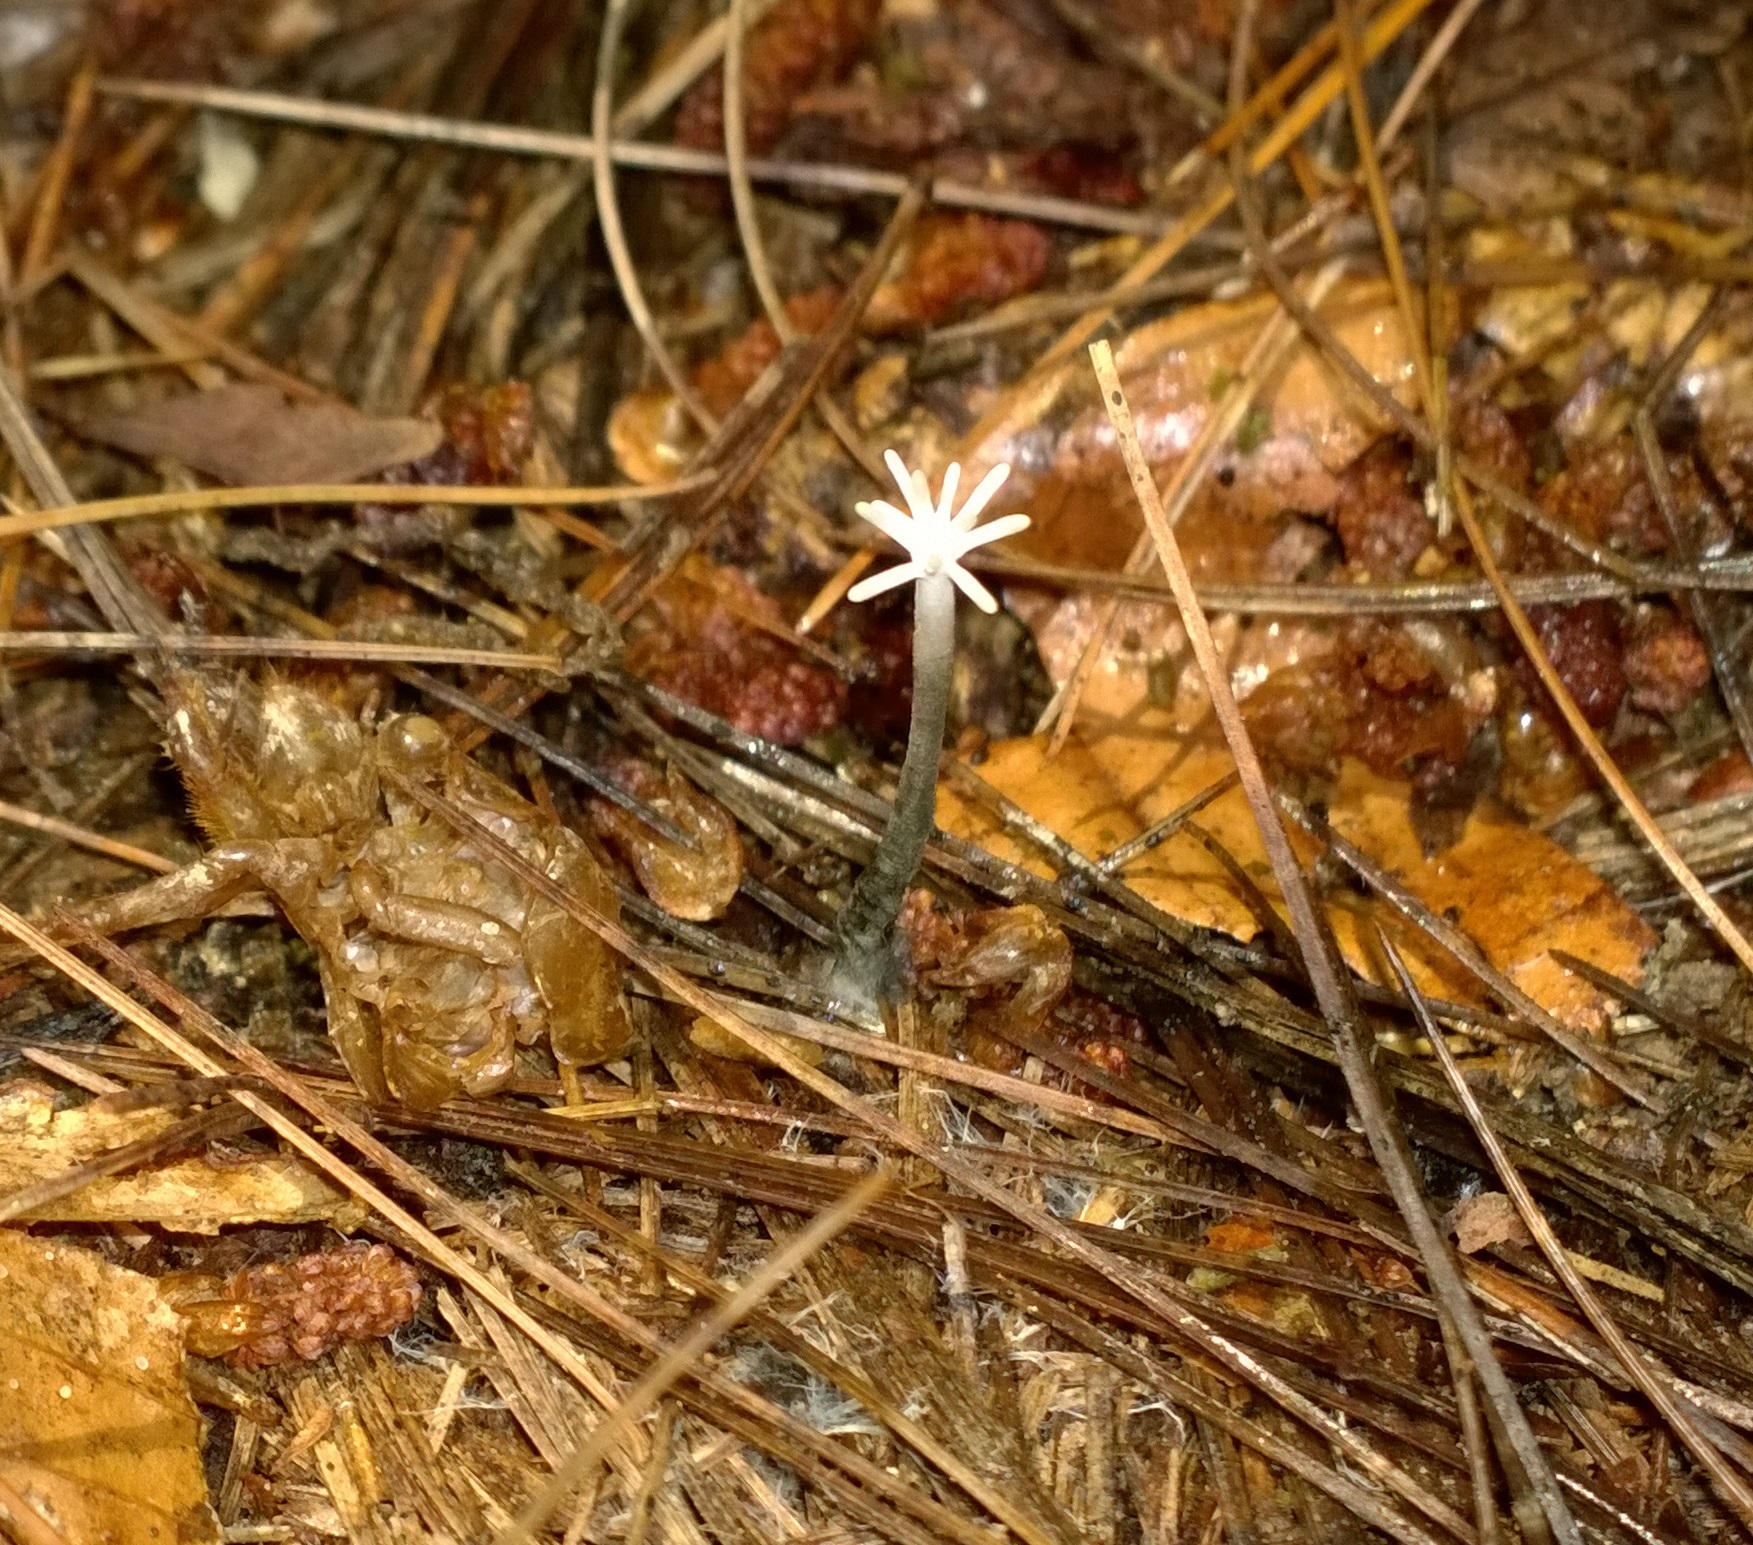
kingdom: Fungi
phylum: Ascomycota
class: Sordariomycetes
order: Xylariales
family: Xylariaceae
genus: Xylaria
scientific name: Xylaria tentaculata
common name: Fairy sparklers
